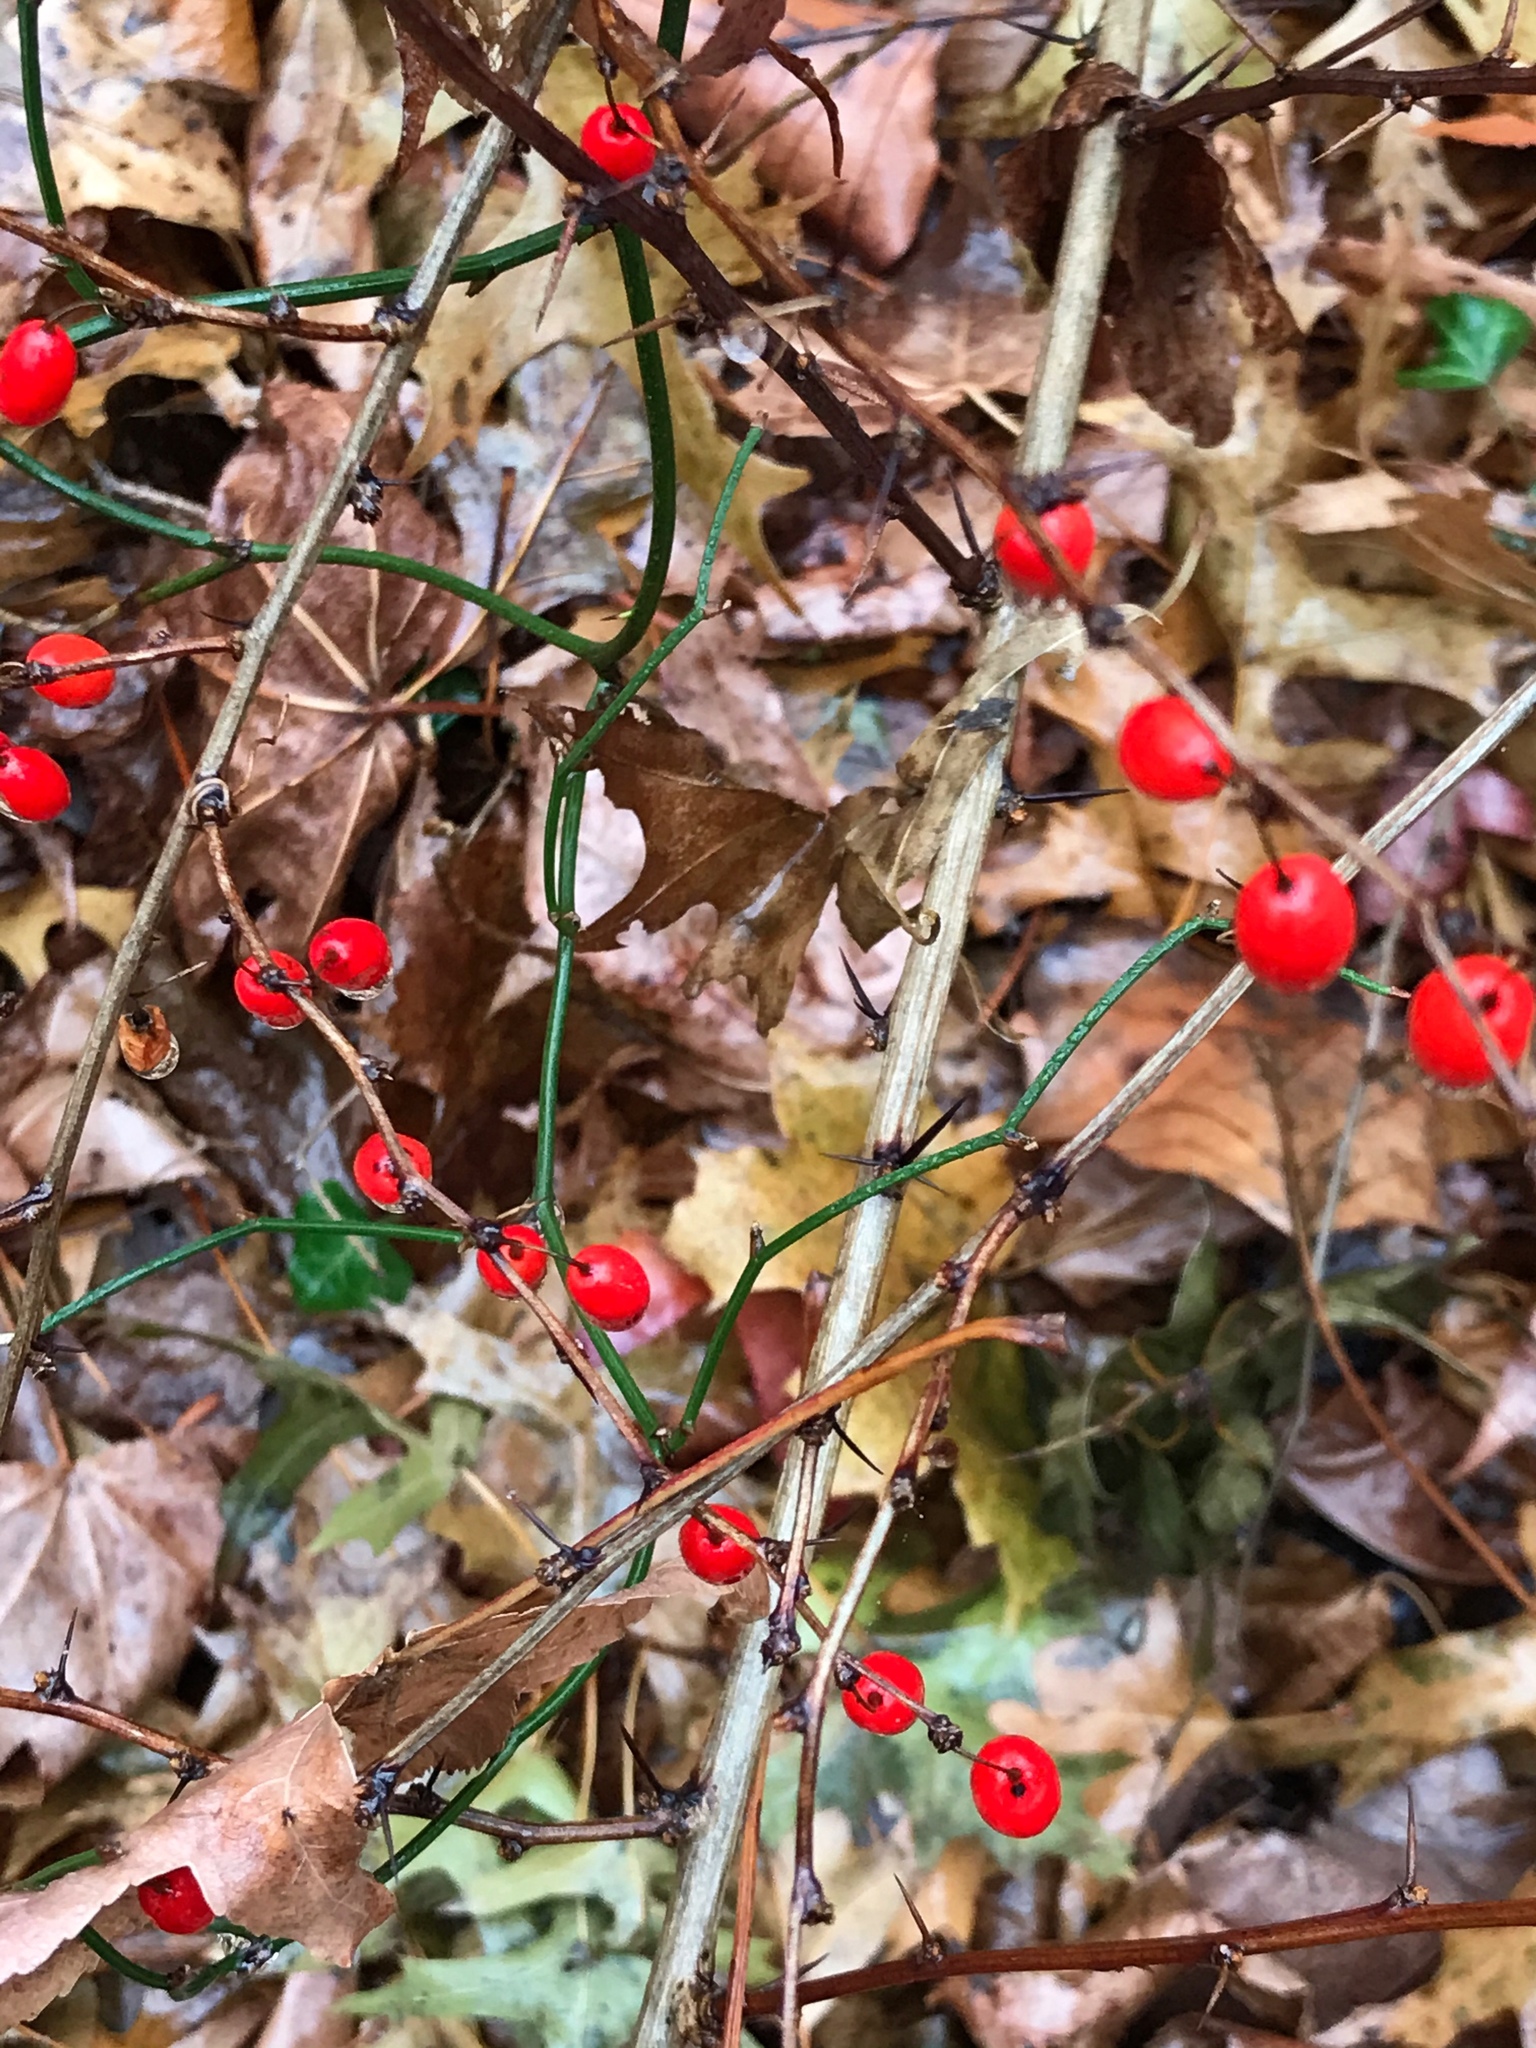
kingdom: Plantae
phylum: Tracheophyta
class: Magnoliopsida
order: Ranunculales
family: Berberidaceae
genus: Berberis
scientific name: Berberis thunbergii
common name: Japanese barberry
